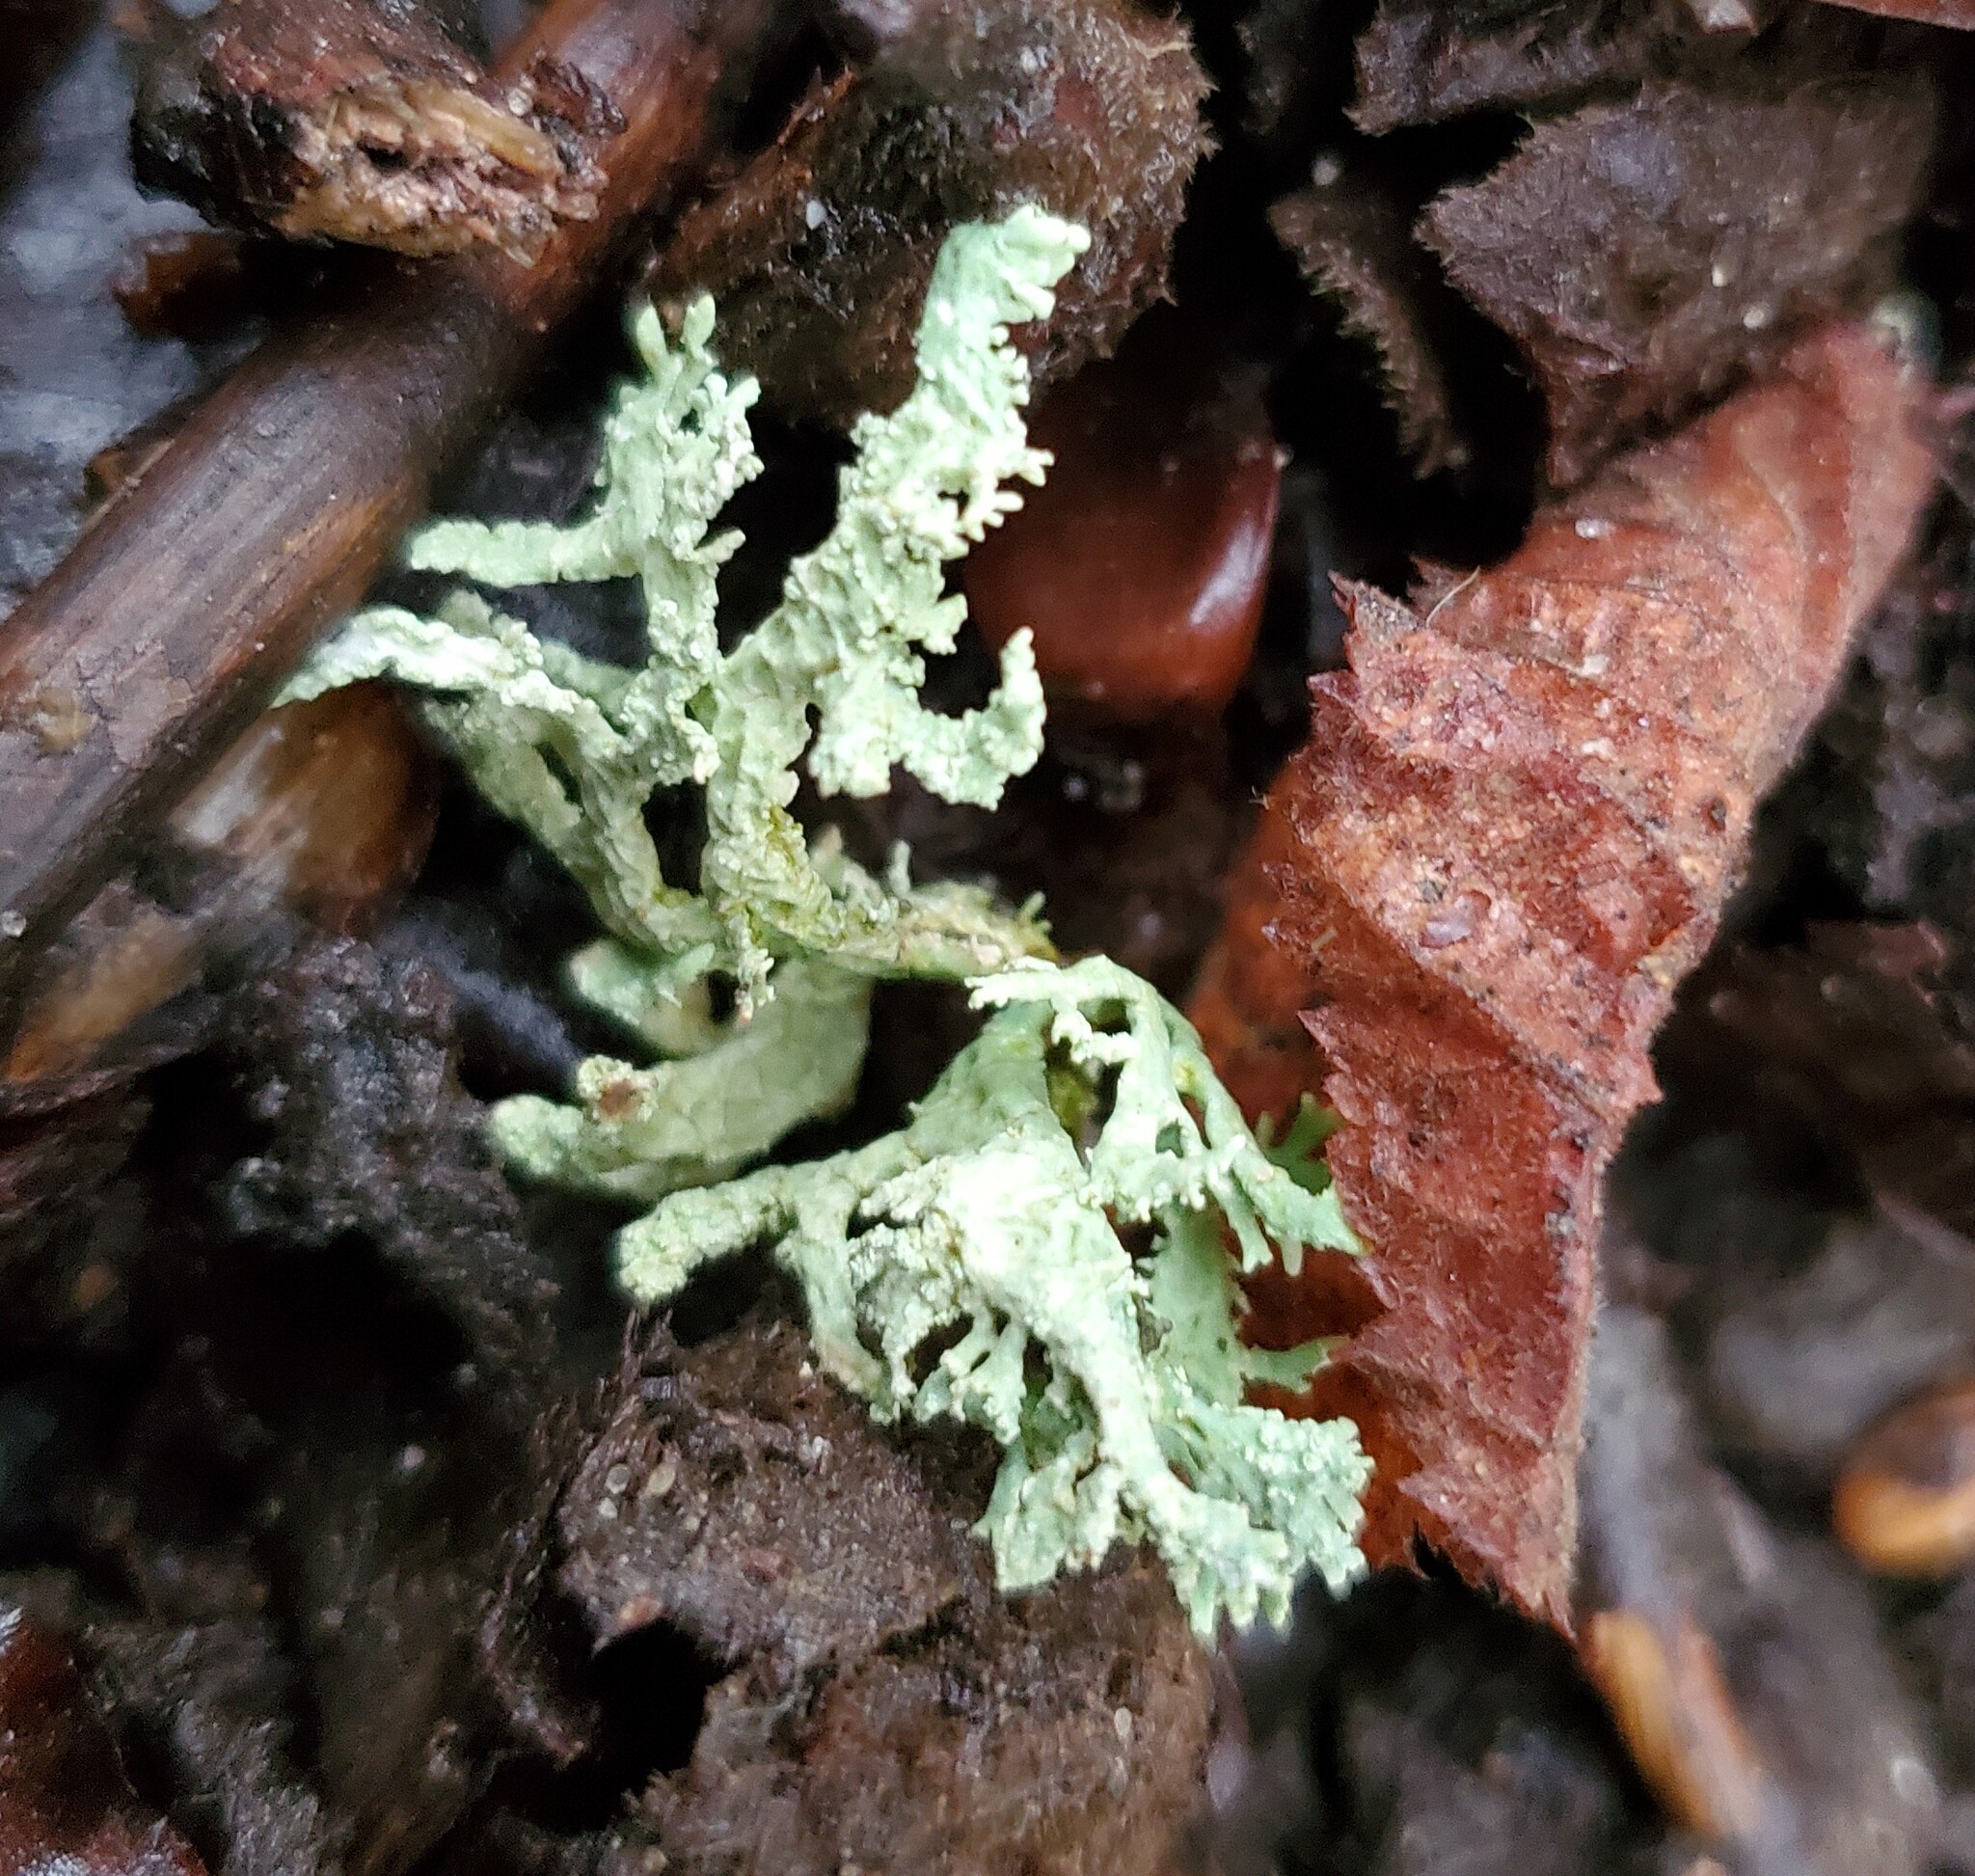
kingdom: Fungi
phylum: Ascomycota
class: Lecanoromycetes
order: Lecanorales
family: Parmeliaceae
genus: Evernia
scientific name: Evernia prunastri
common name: Oak moss
